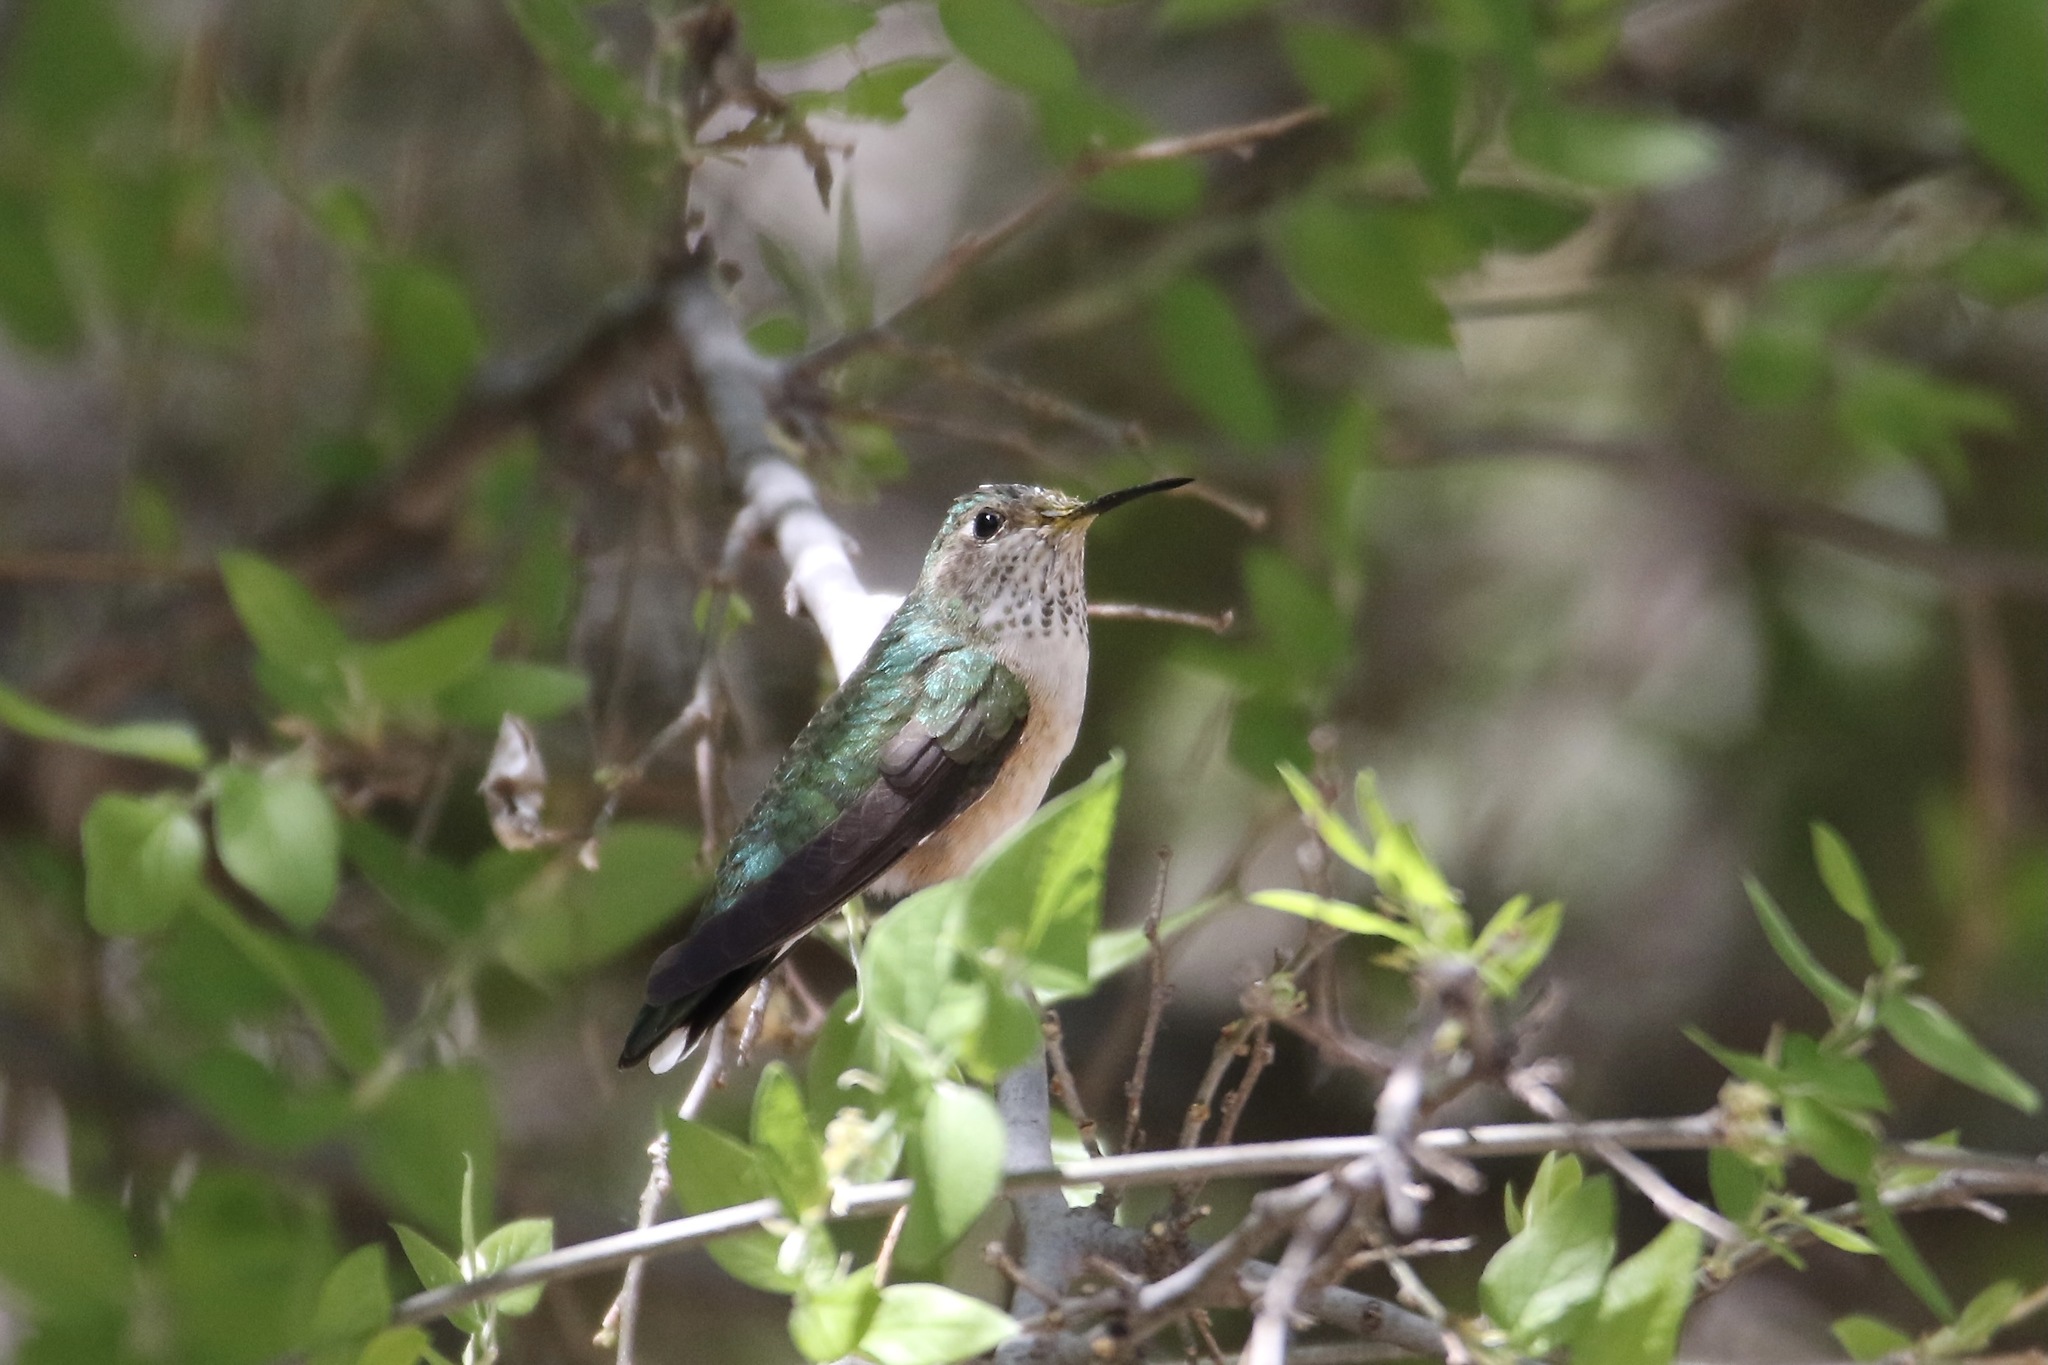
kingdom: Animalia
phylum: Chordata
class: Aves
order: Apodiformes
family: Trochilidae
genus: Selasphorus
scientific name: Selasphorus platycercus
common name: Broad-tailed hummingbird
